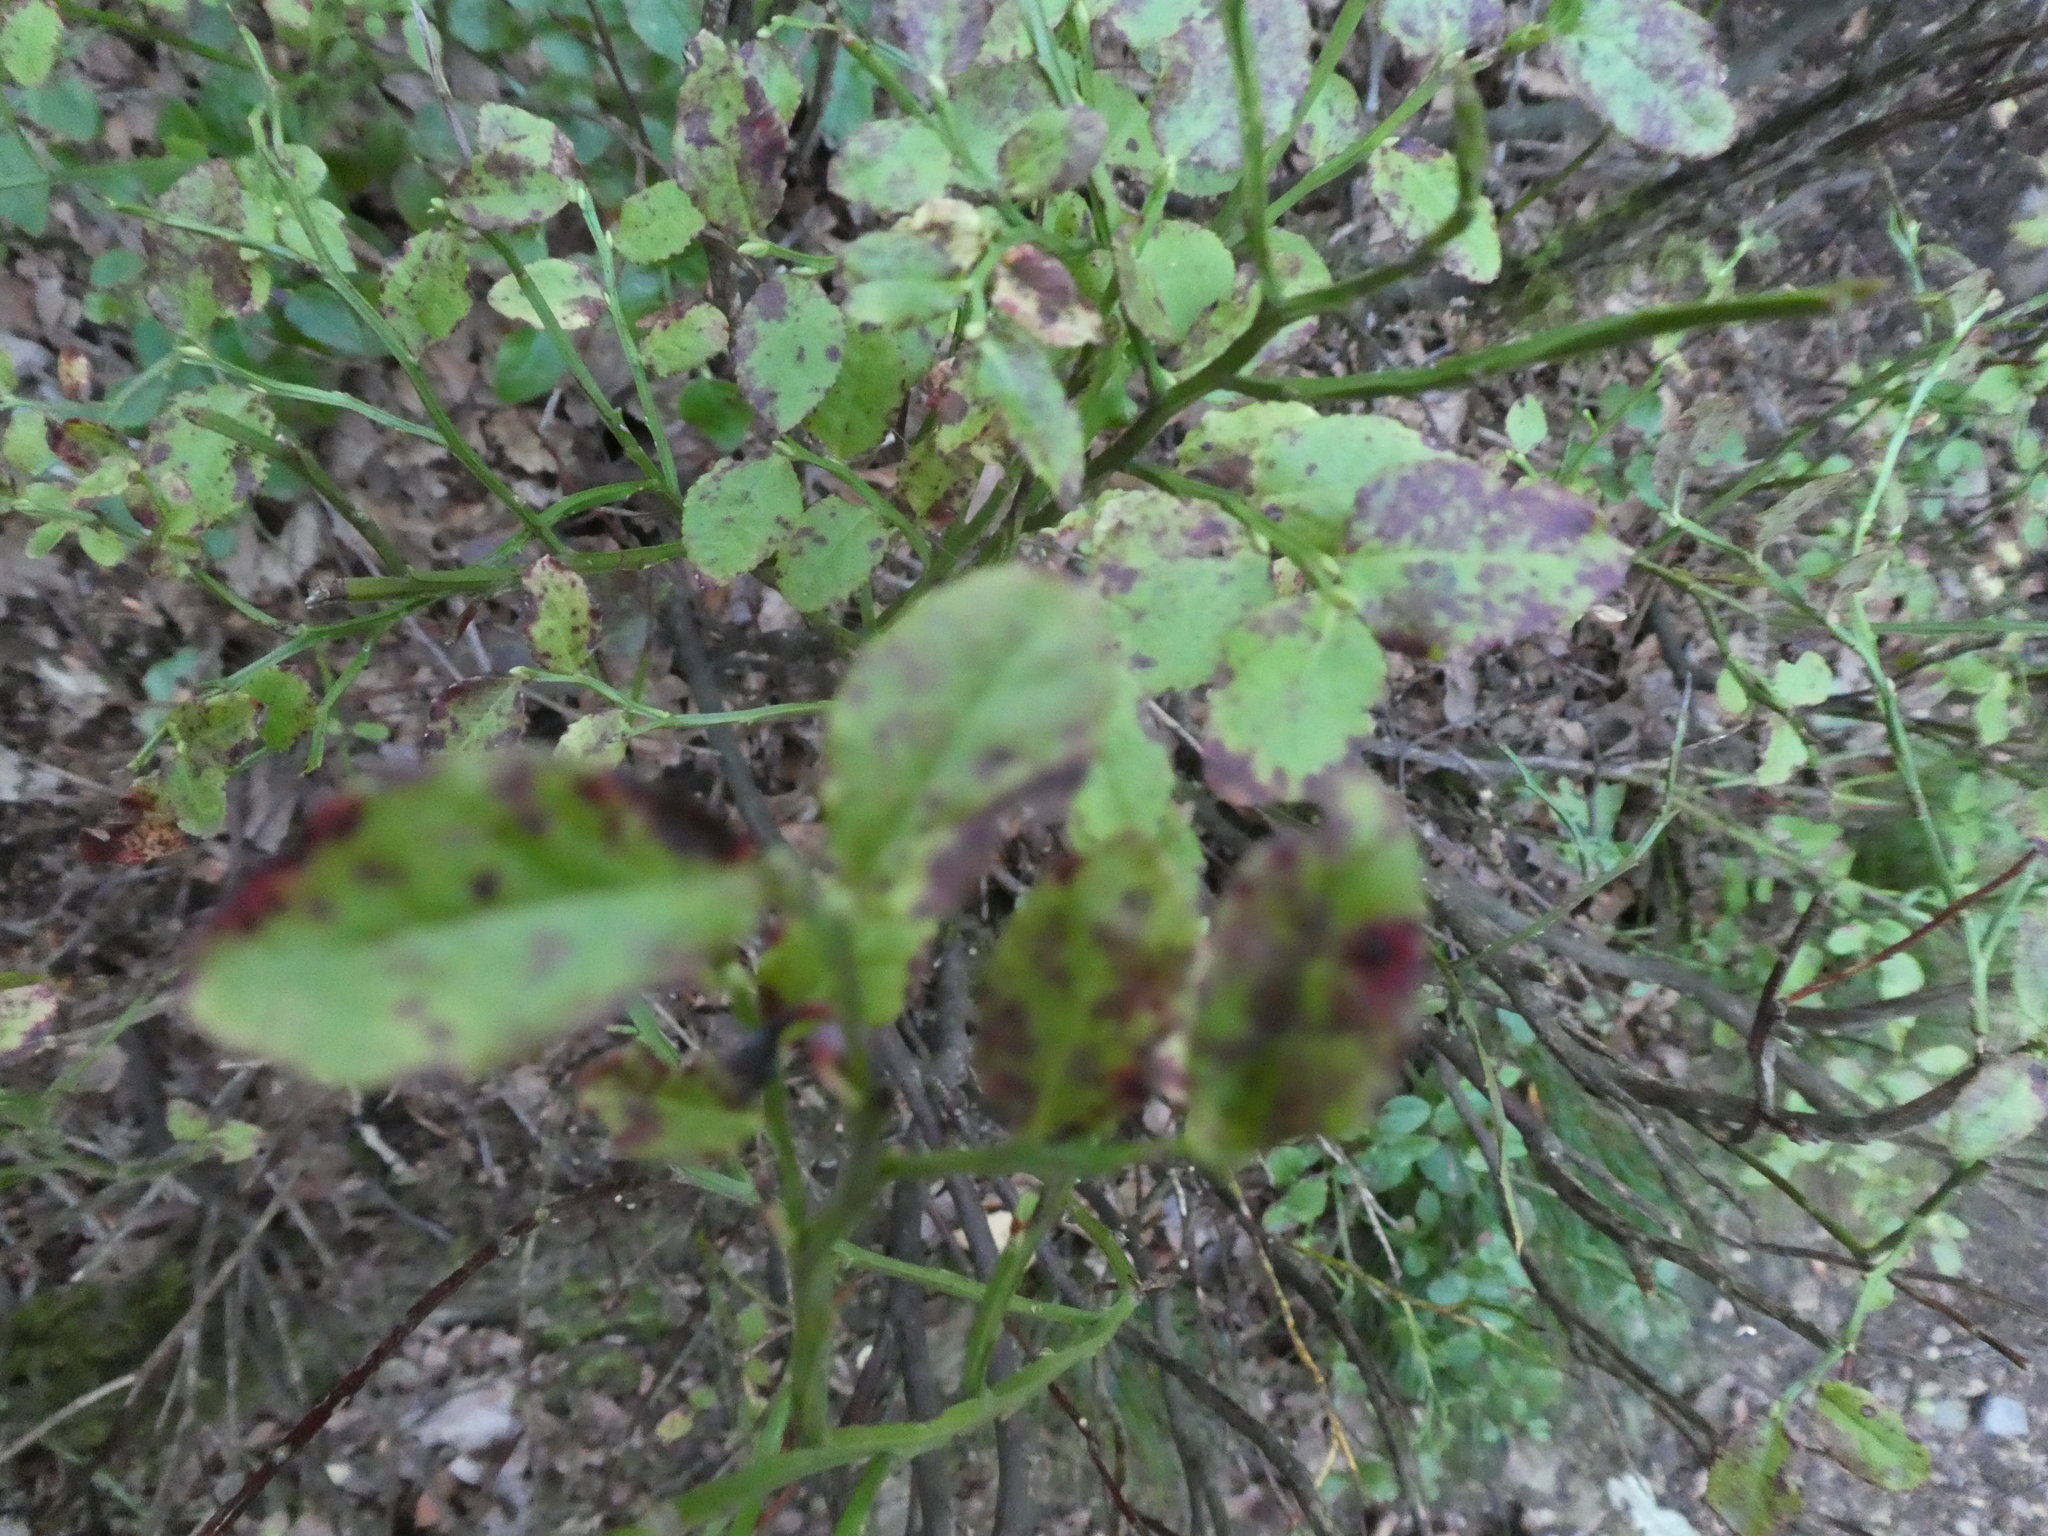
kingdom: Plantae
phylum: Tracheophyta
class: Magnoliopsida
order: Ericales
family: Ericaceae
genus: Vaccinium
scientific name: Vaccinium myrtillus
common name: Bilberry
